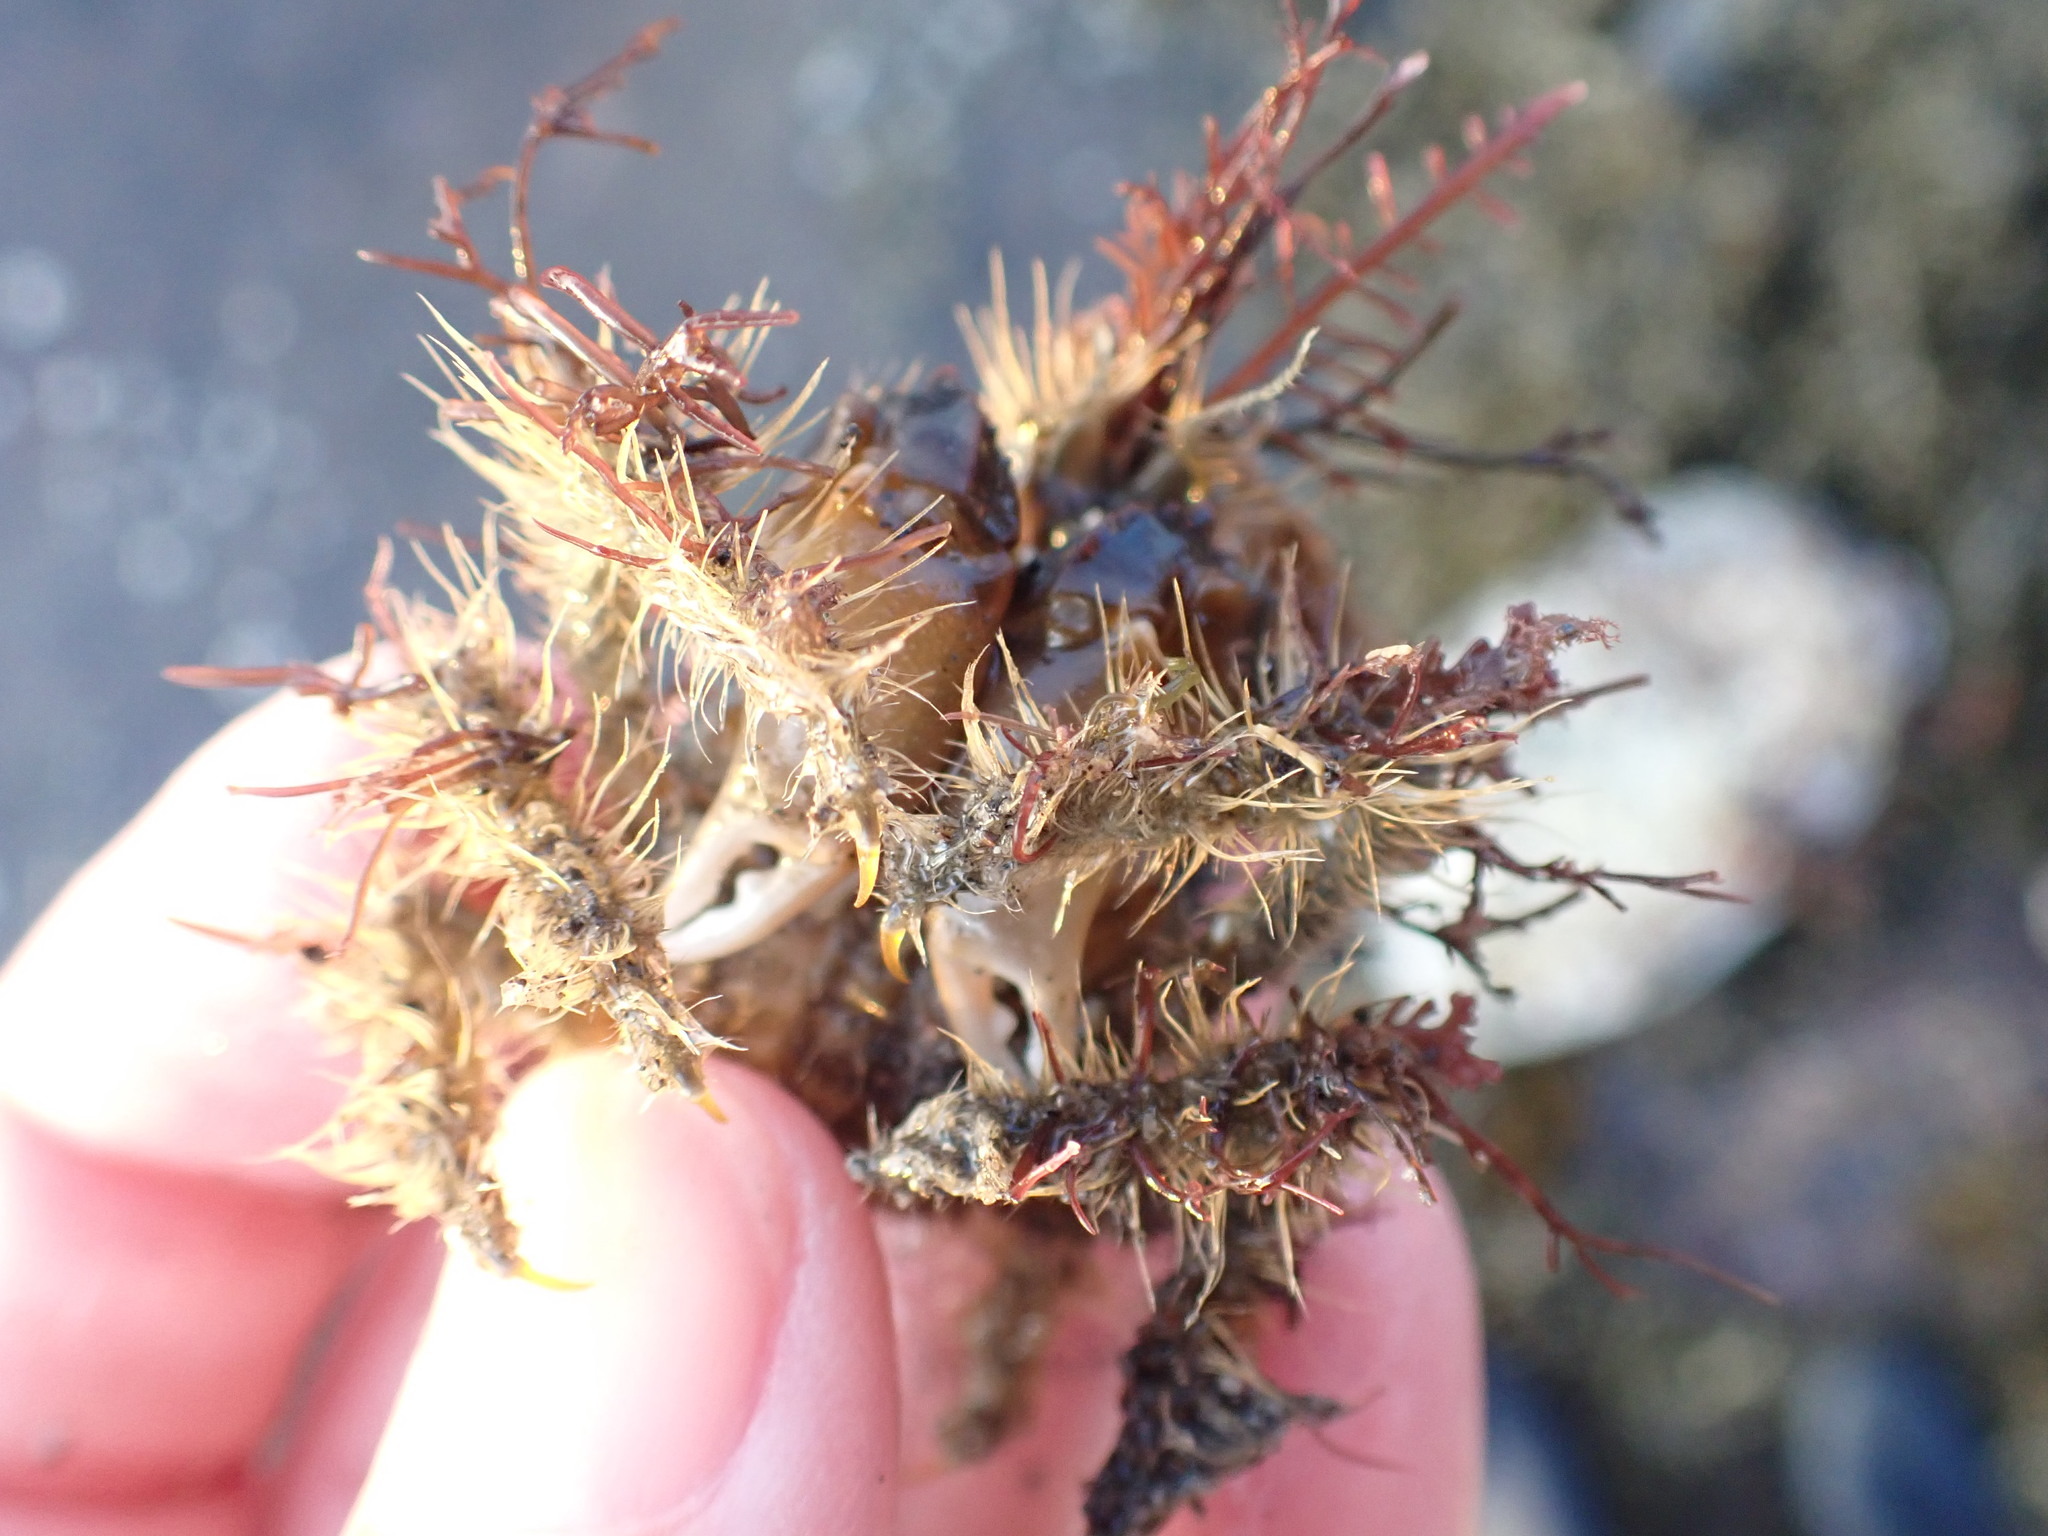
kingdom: Animalia
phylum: Arthropoda
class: Malacostraca
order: Decapoda
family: Majidae
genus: Notomithrax
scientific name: Notomithrax ursus
